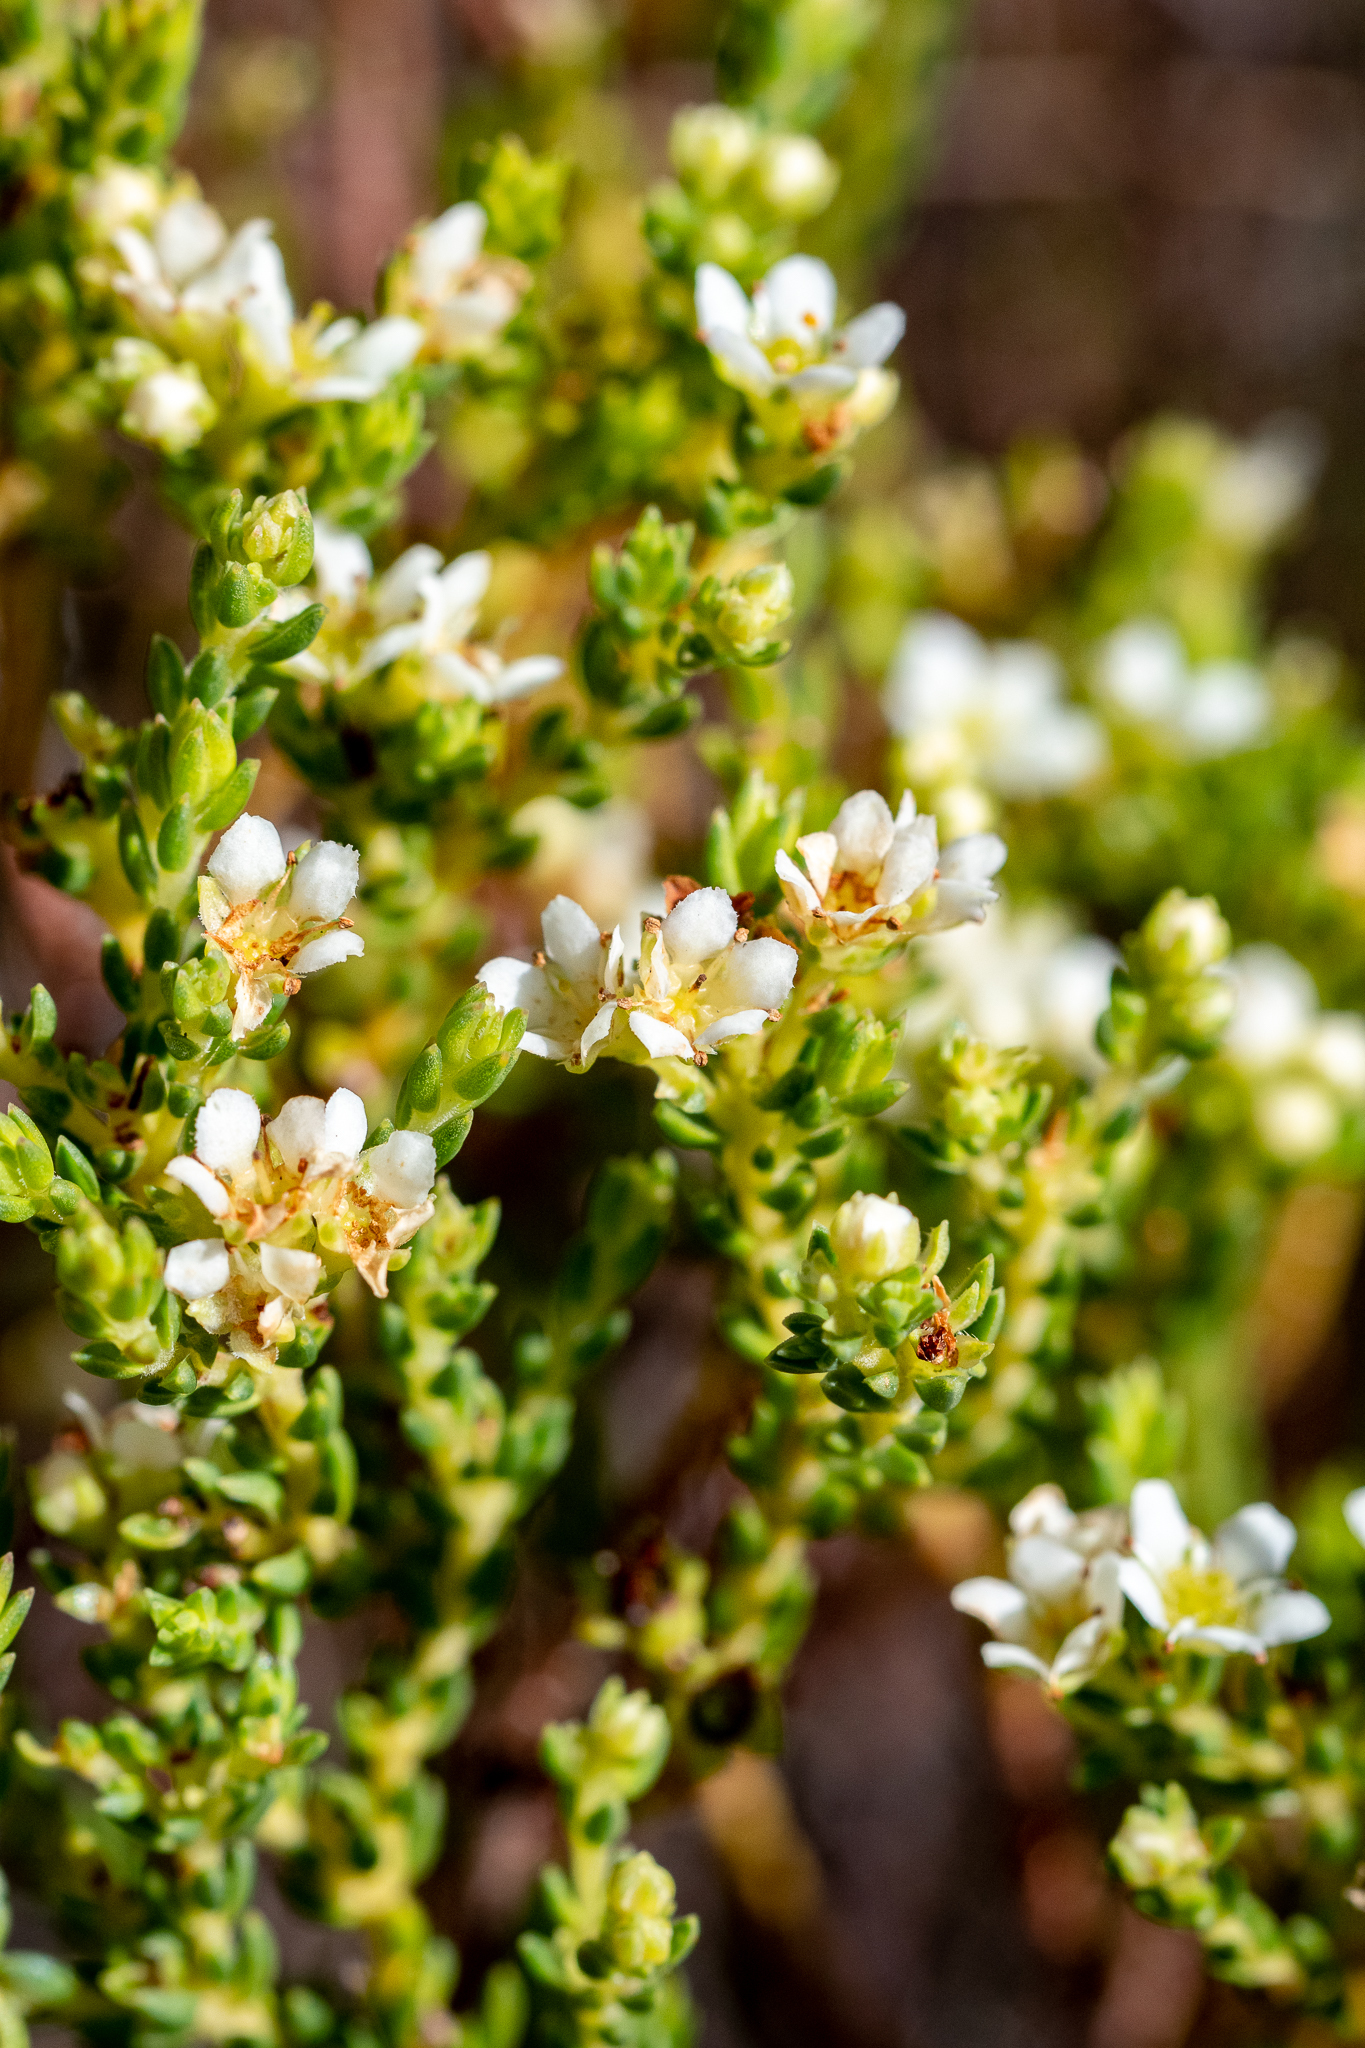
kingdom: Plantae
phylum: Tracheophyta
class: Magnoliopsida
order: Sapindales
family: Rutaceae
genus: Diosma
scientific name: Diosma oppositifolia
